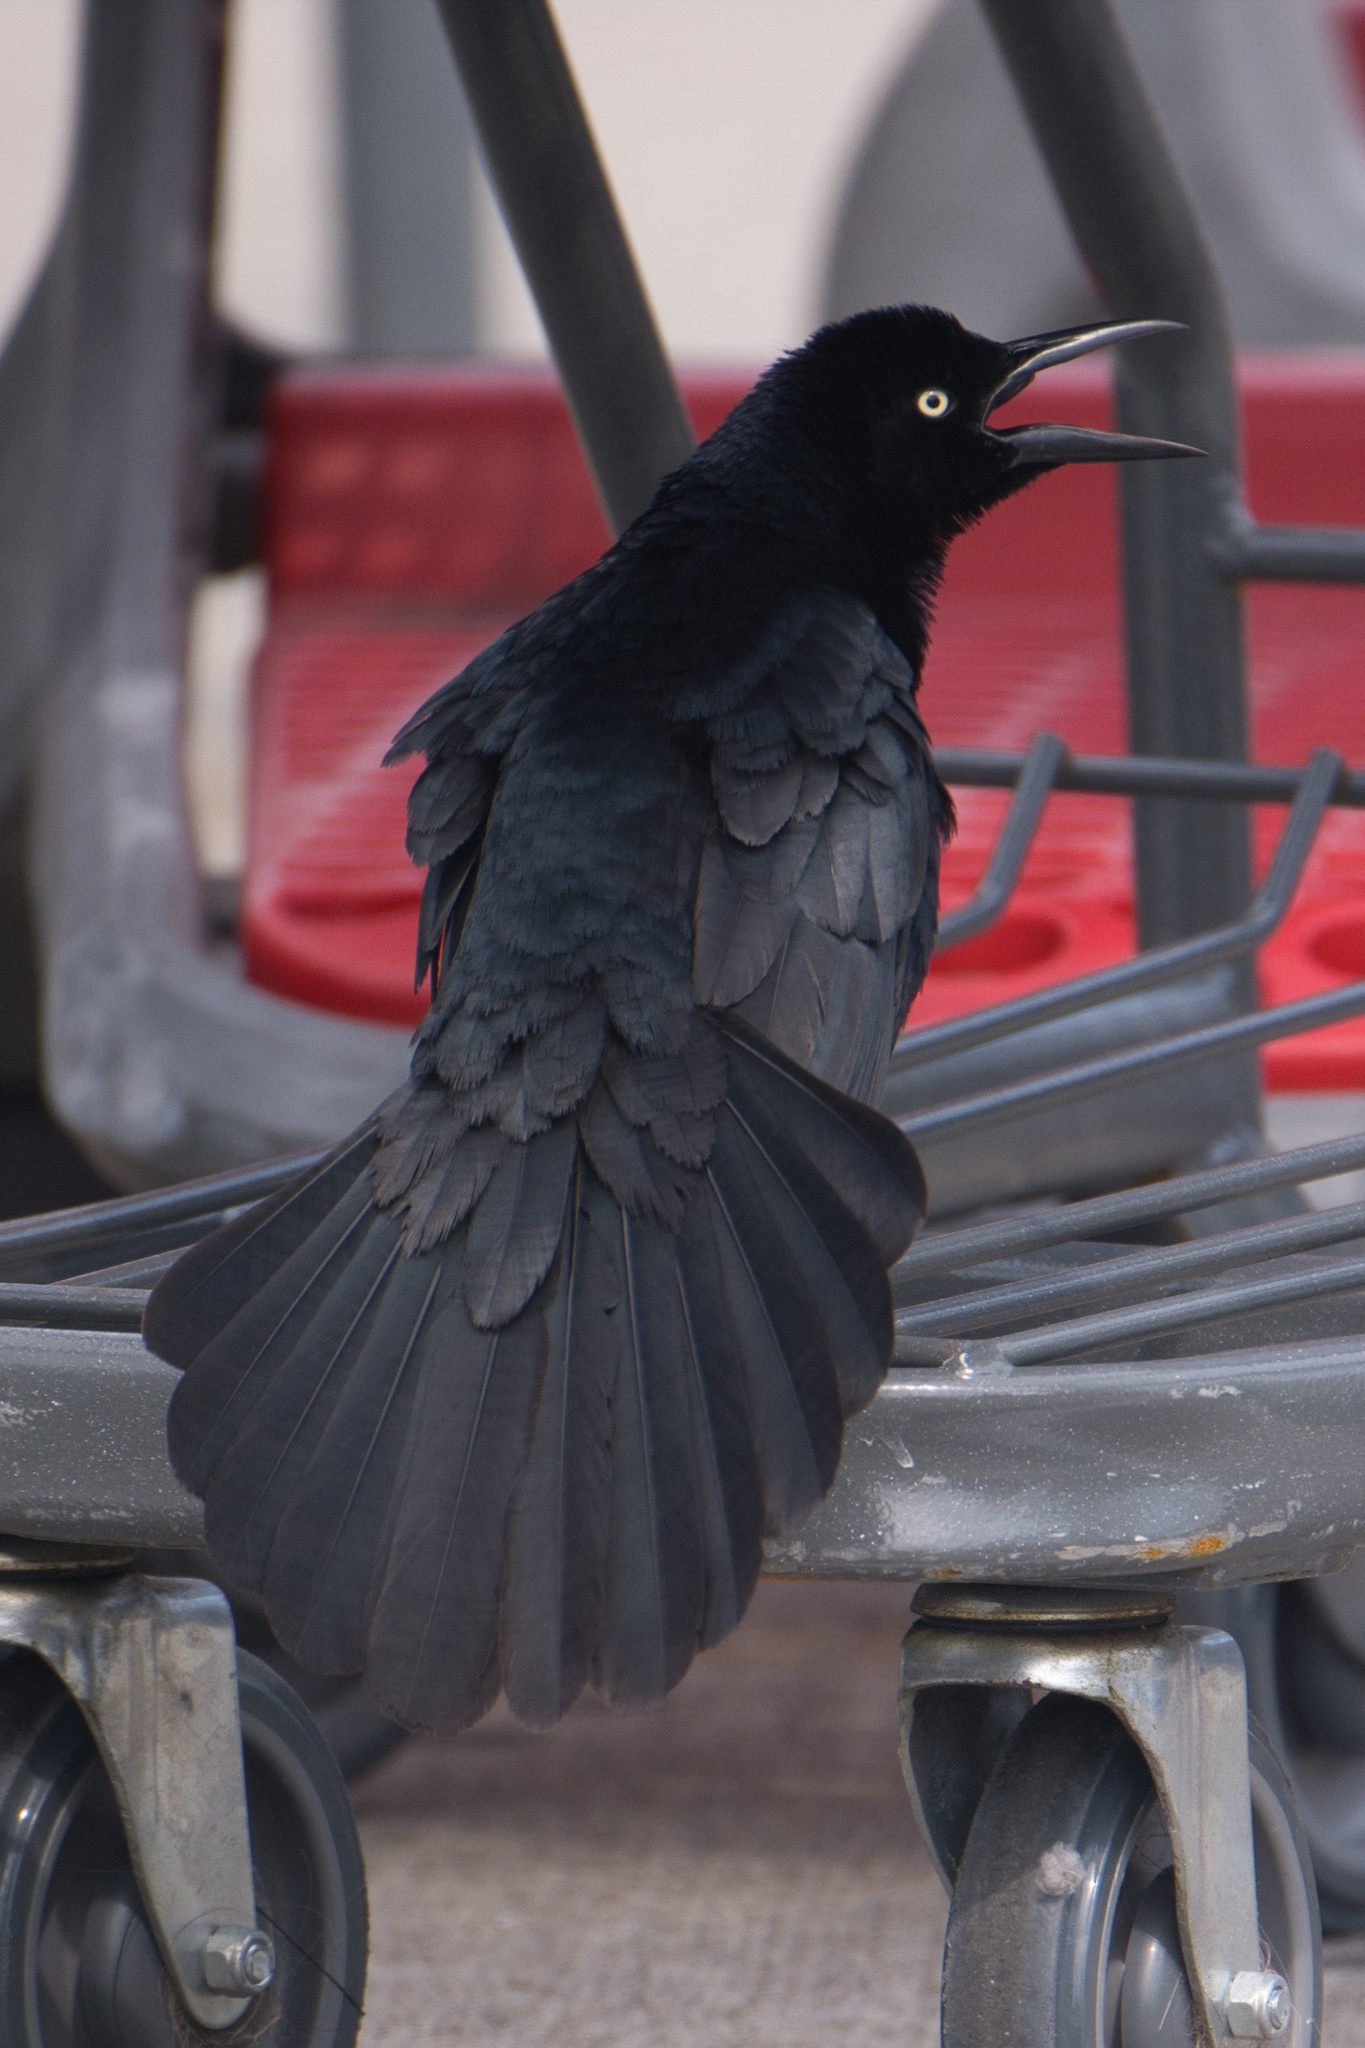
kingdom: Animalia
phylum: Chordata
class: Aves
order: Passeriformes
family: Icteridae
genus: Quiscalus
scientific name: Quiscalus mexicanus
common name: Great-tailed grackle
